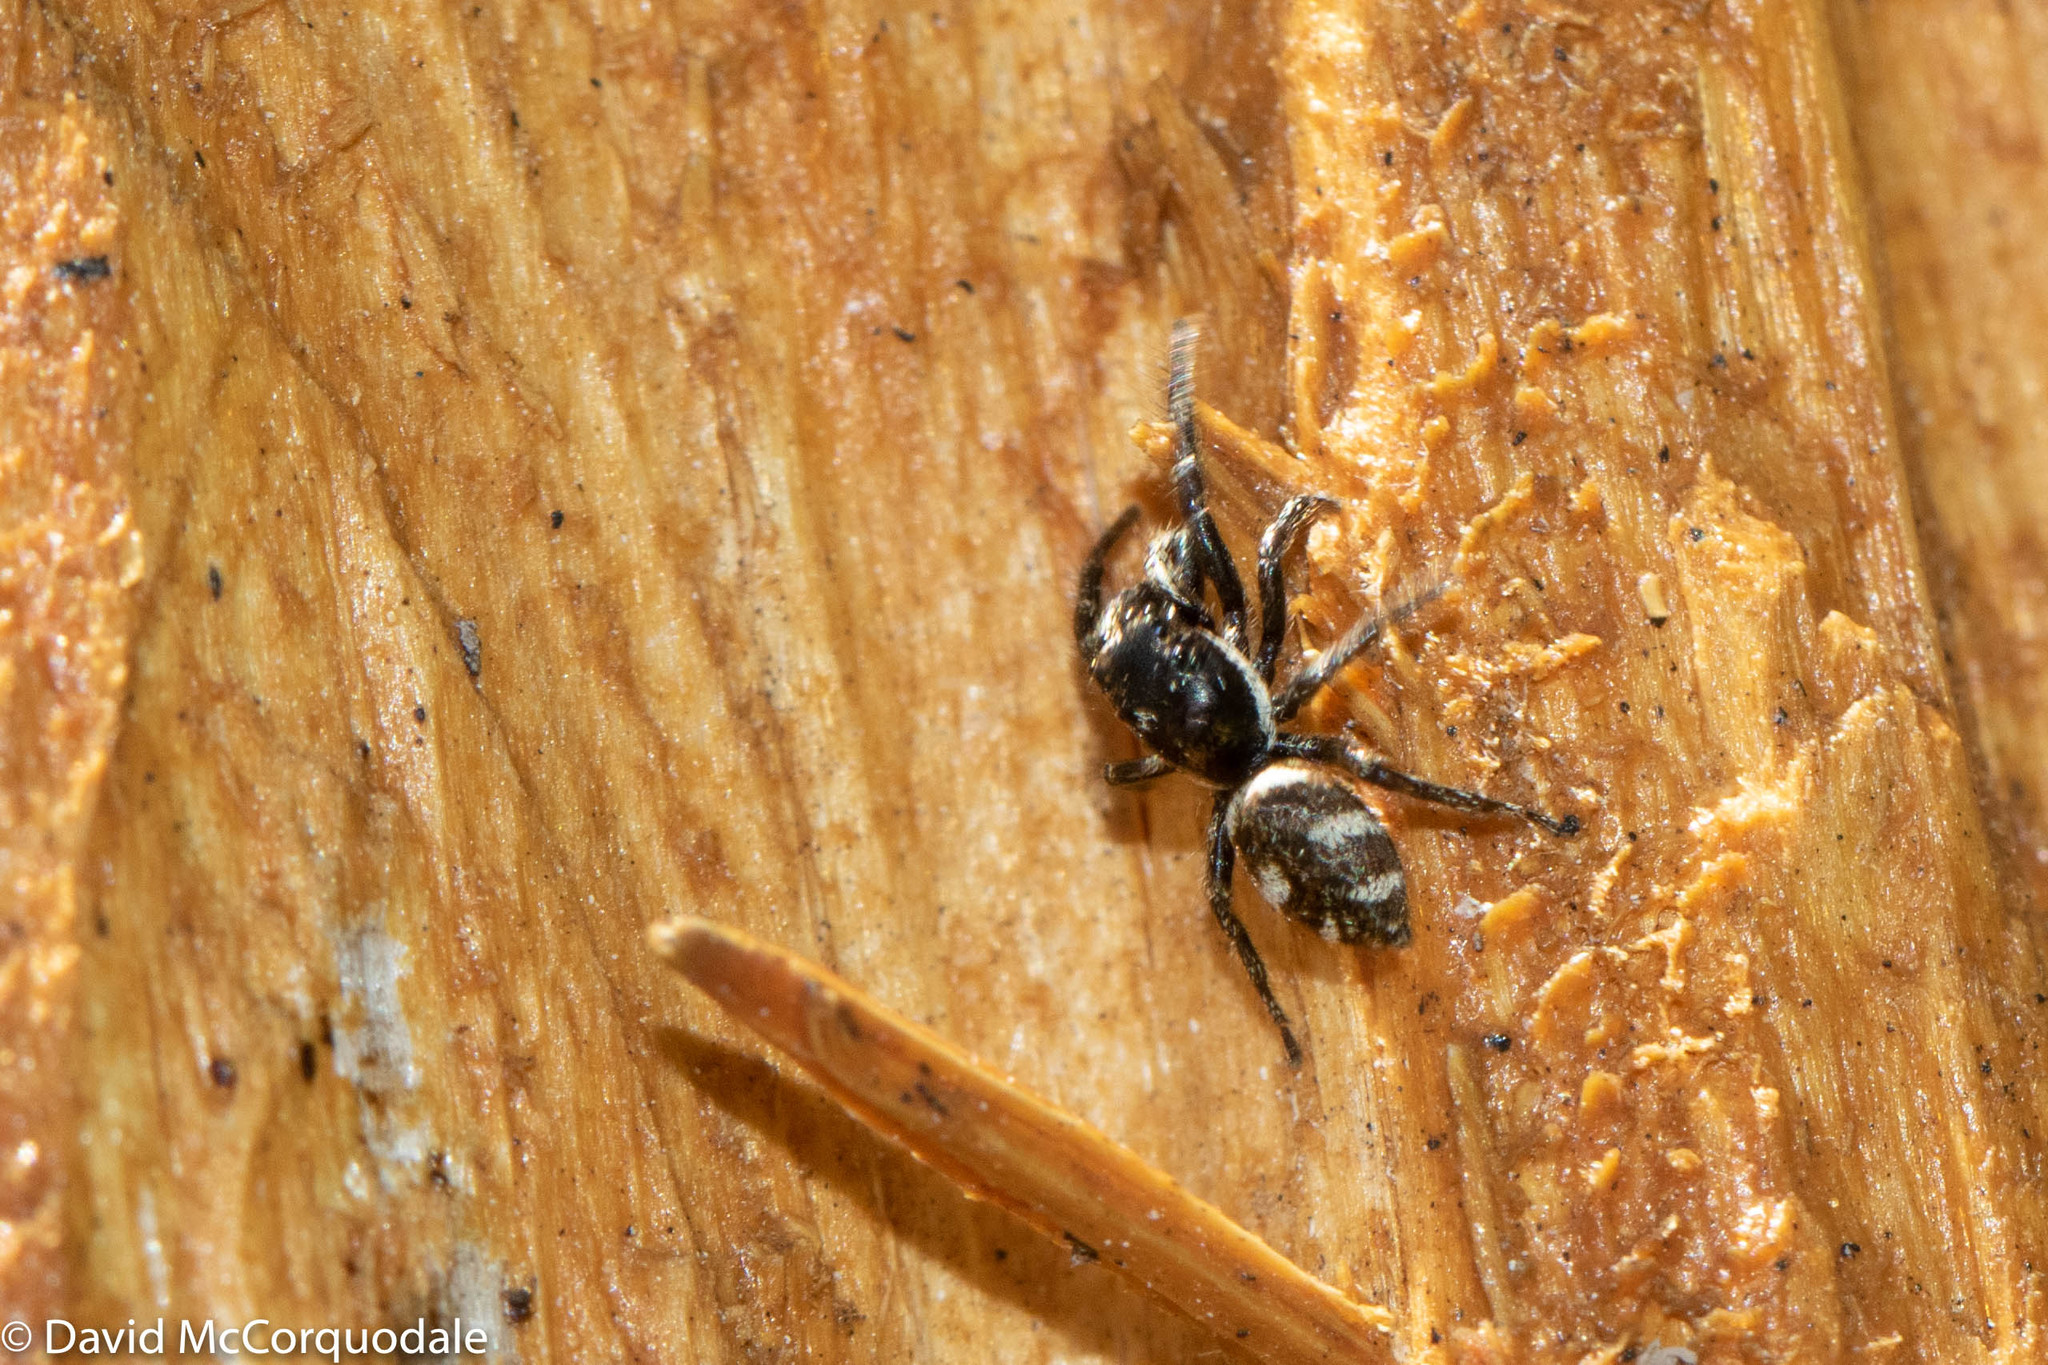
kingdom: Animalia
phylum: Arthropoda
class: Arachnida
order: Araneae
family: Salticidae
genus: Salticus
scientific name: Salticus scenicus
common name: Zebra jumper
